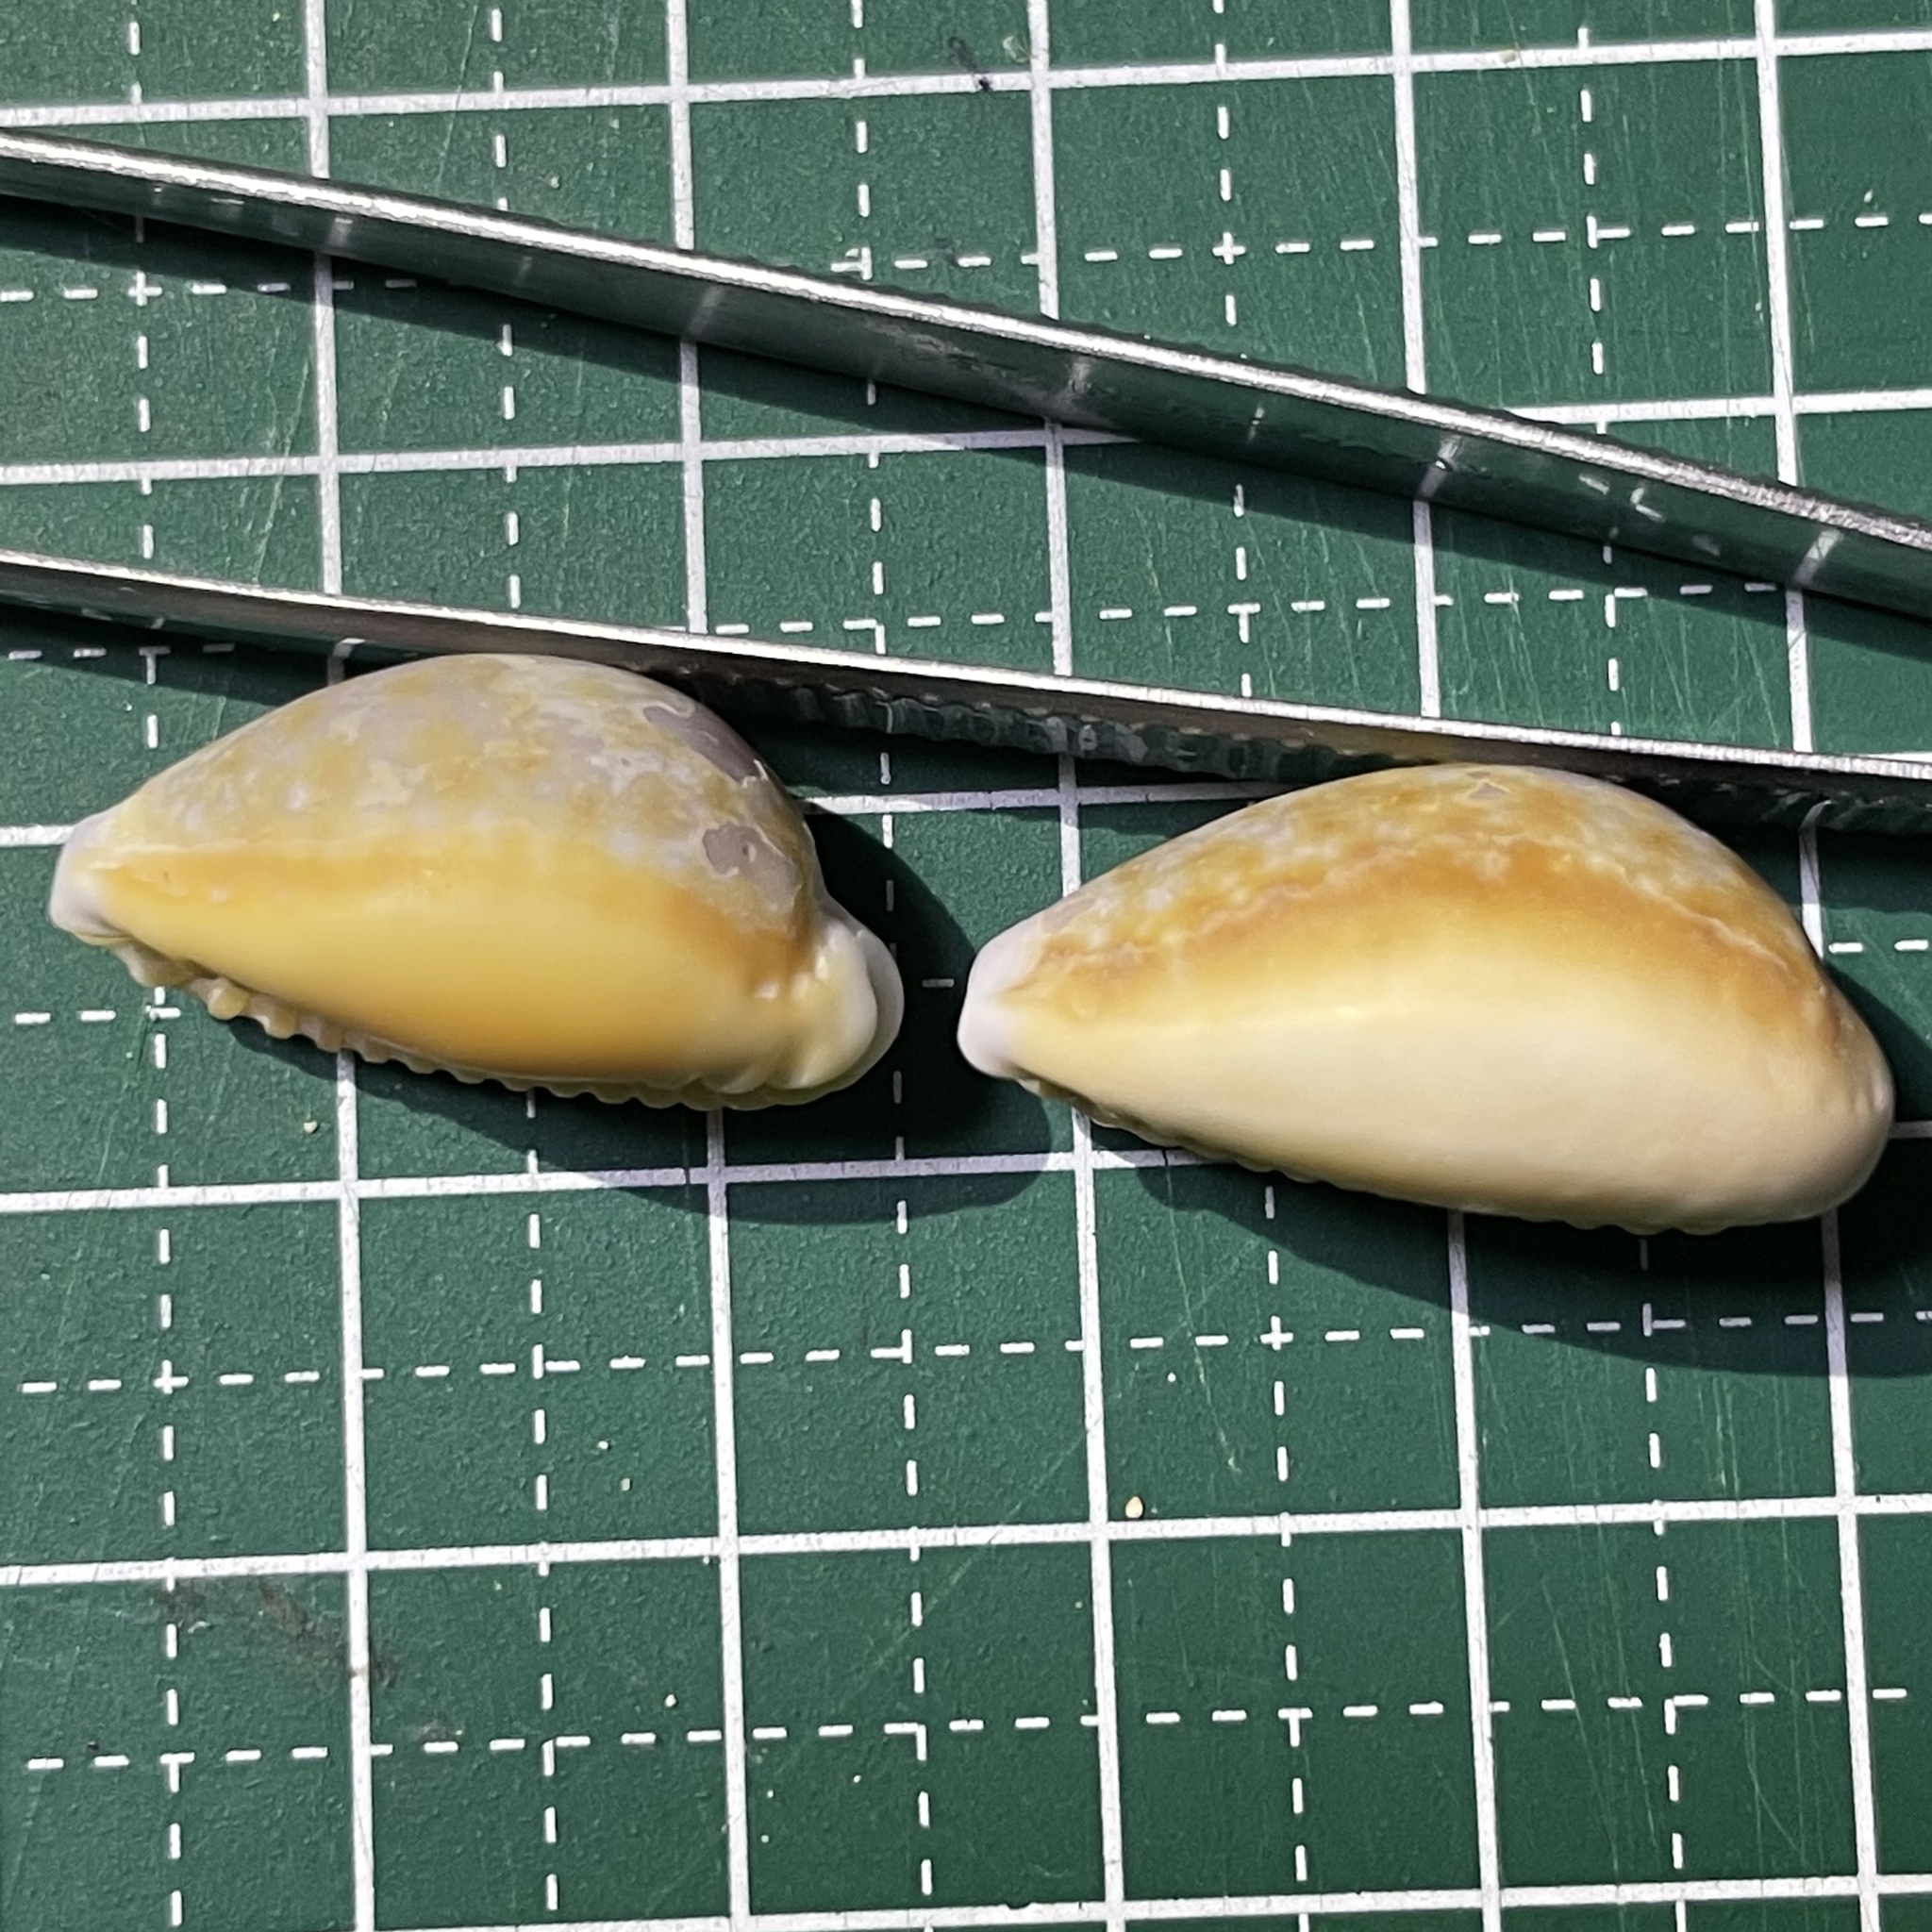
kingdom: Animalia
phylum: Mollusca
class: Gastropoda
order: Littorinimorpha
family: Cypraeidae
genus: Naria
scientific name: Naria helvola
